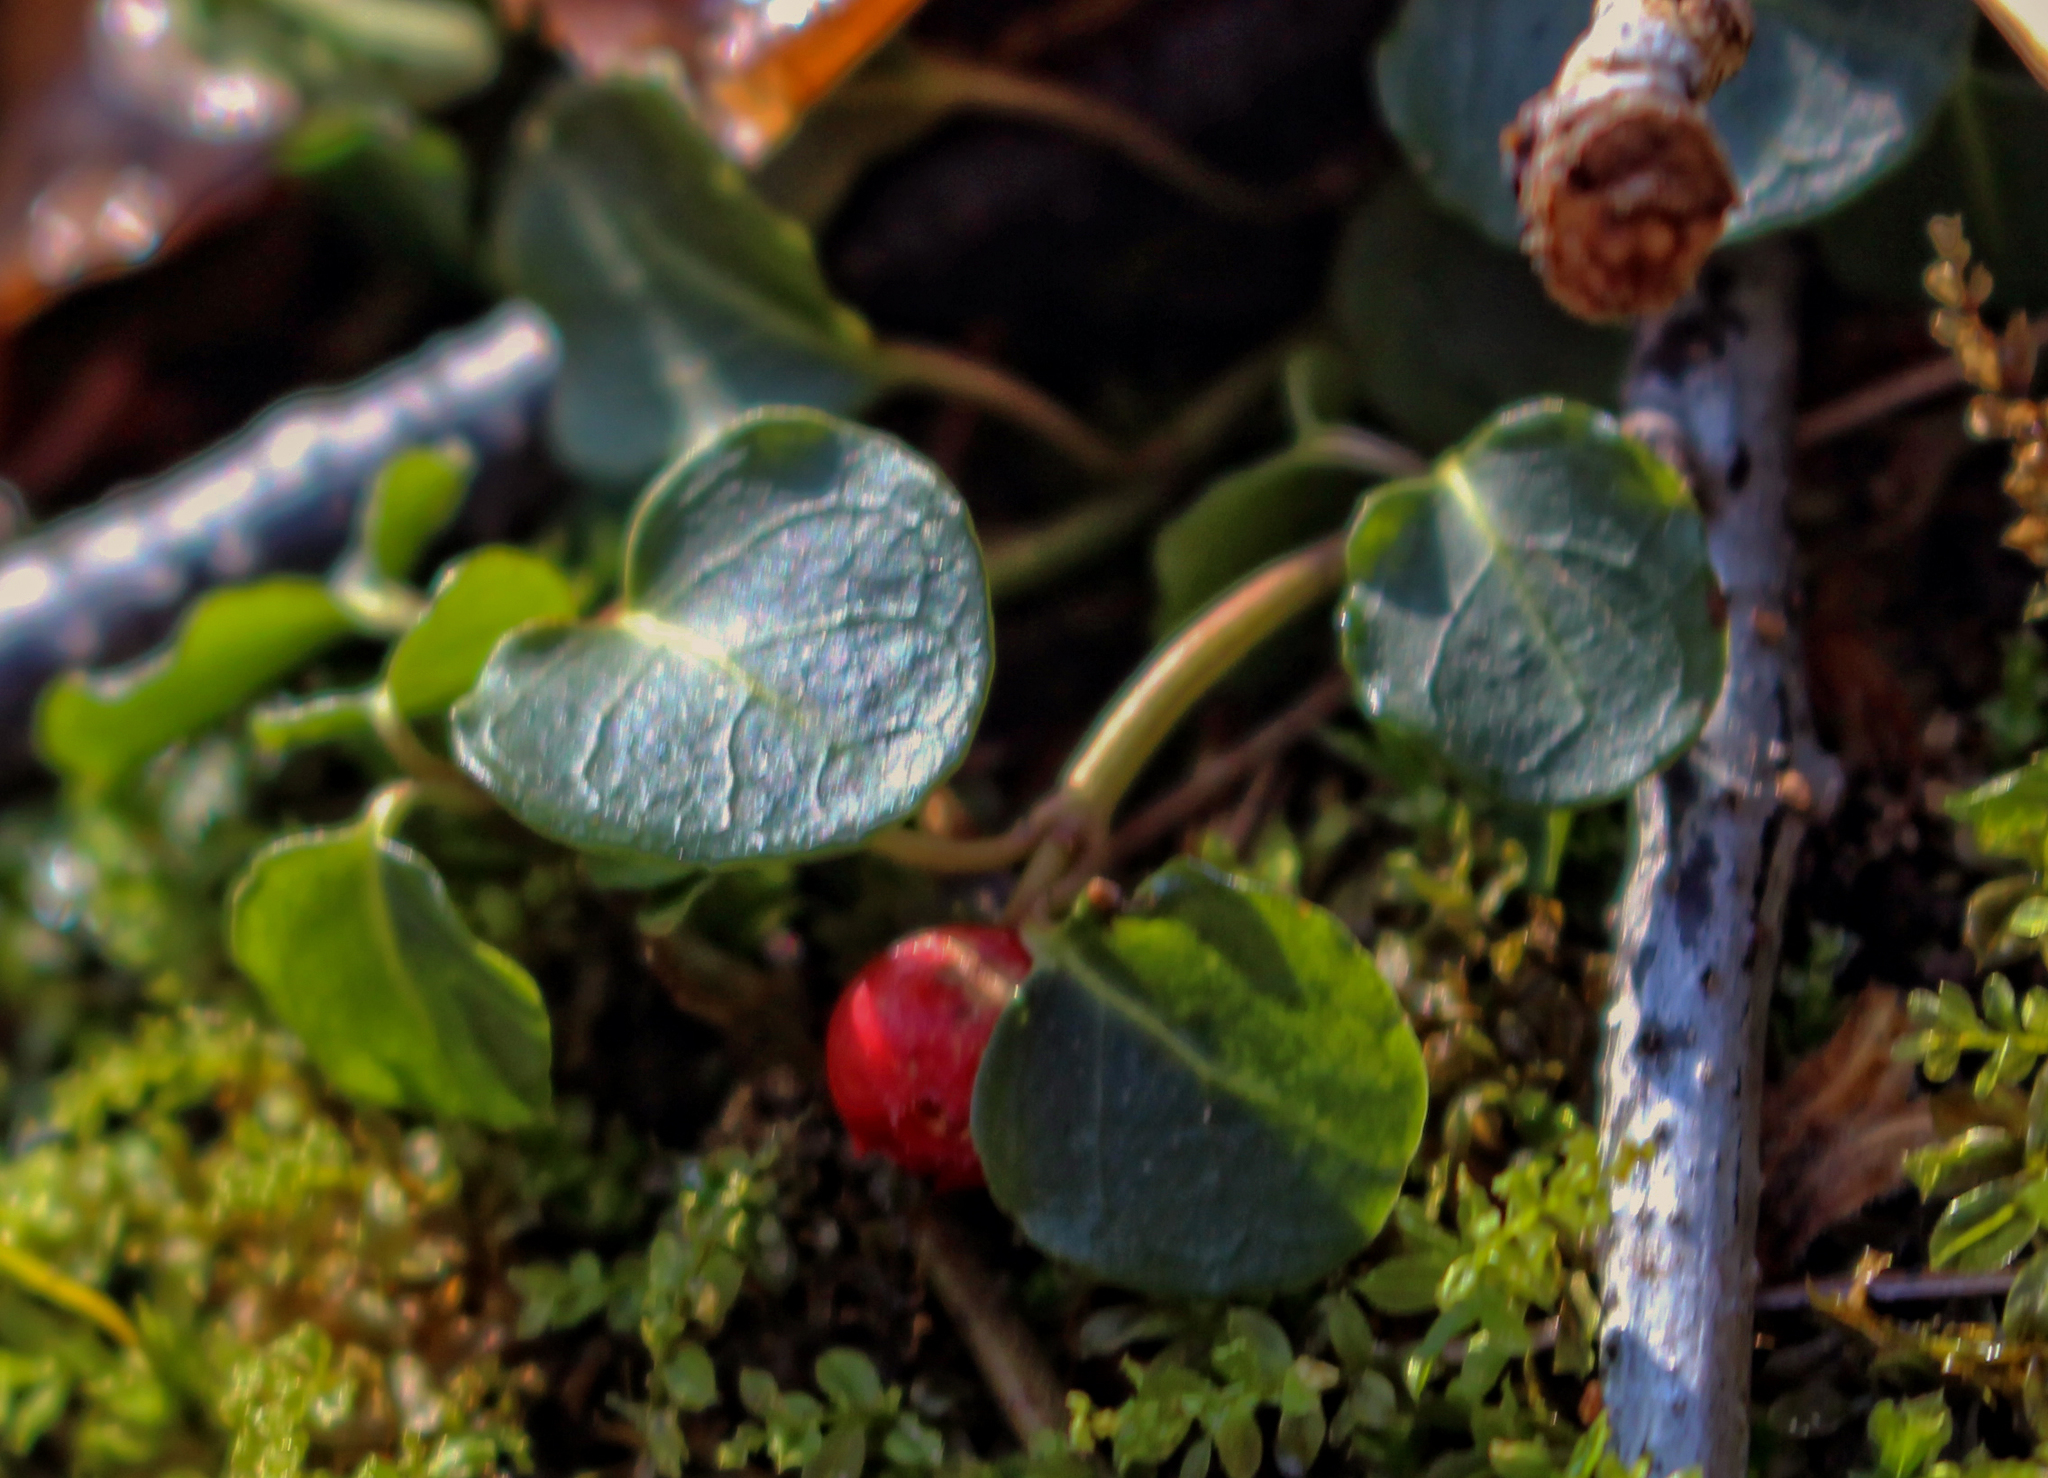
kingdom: Plantae
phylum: Tracheophyta
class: Magnoliopsida
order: Gentianales
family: Rubiaceae
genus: Mitchella
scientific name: Mitchella repens
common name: Partridge-berry
